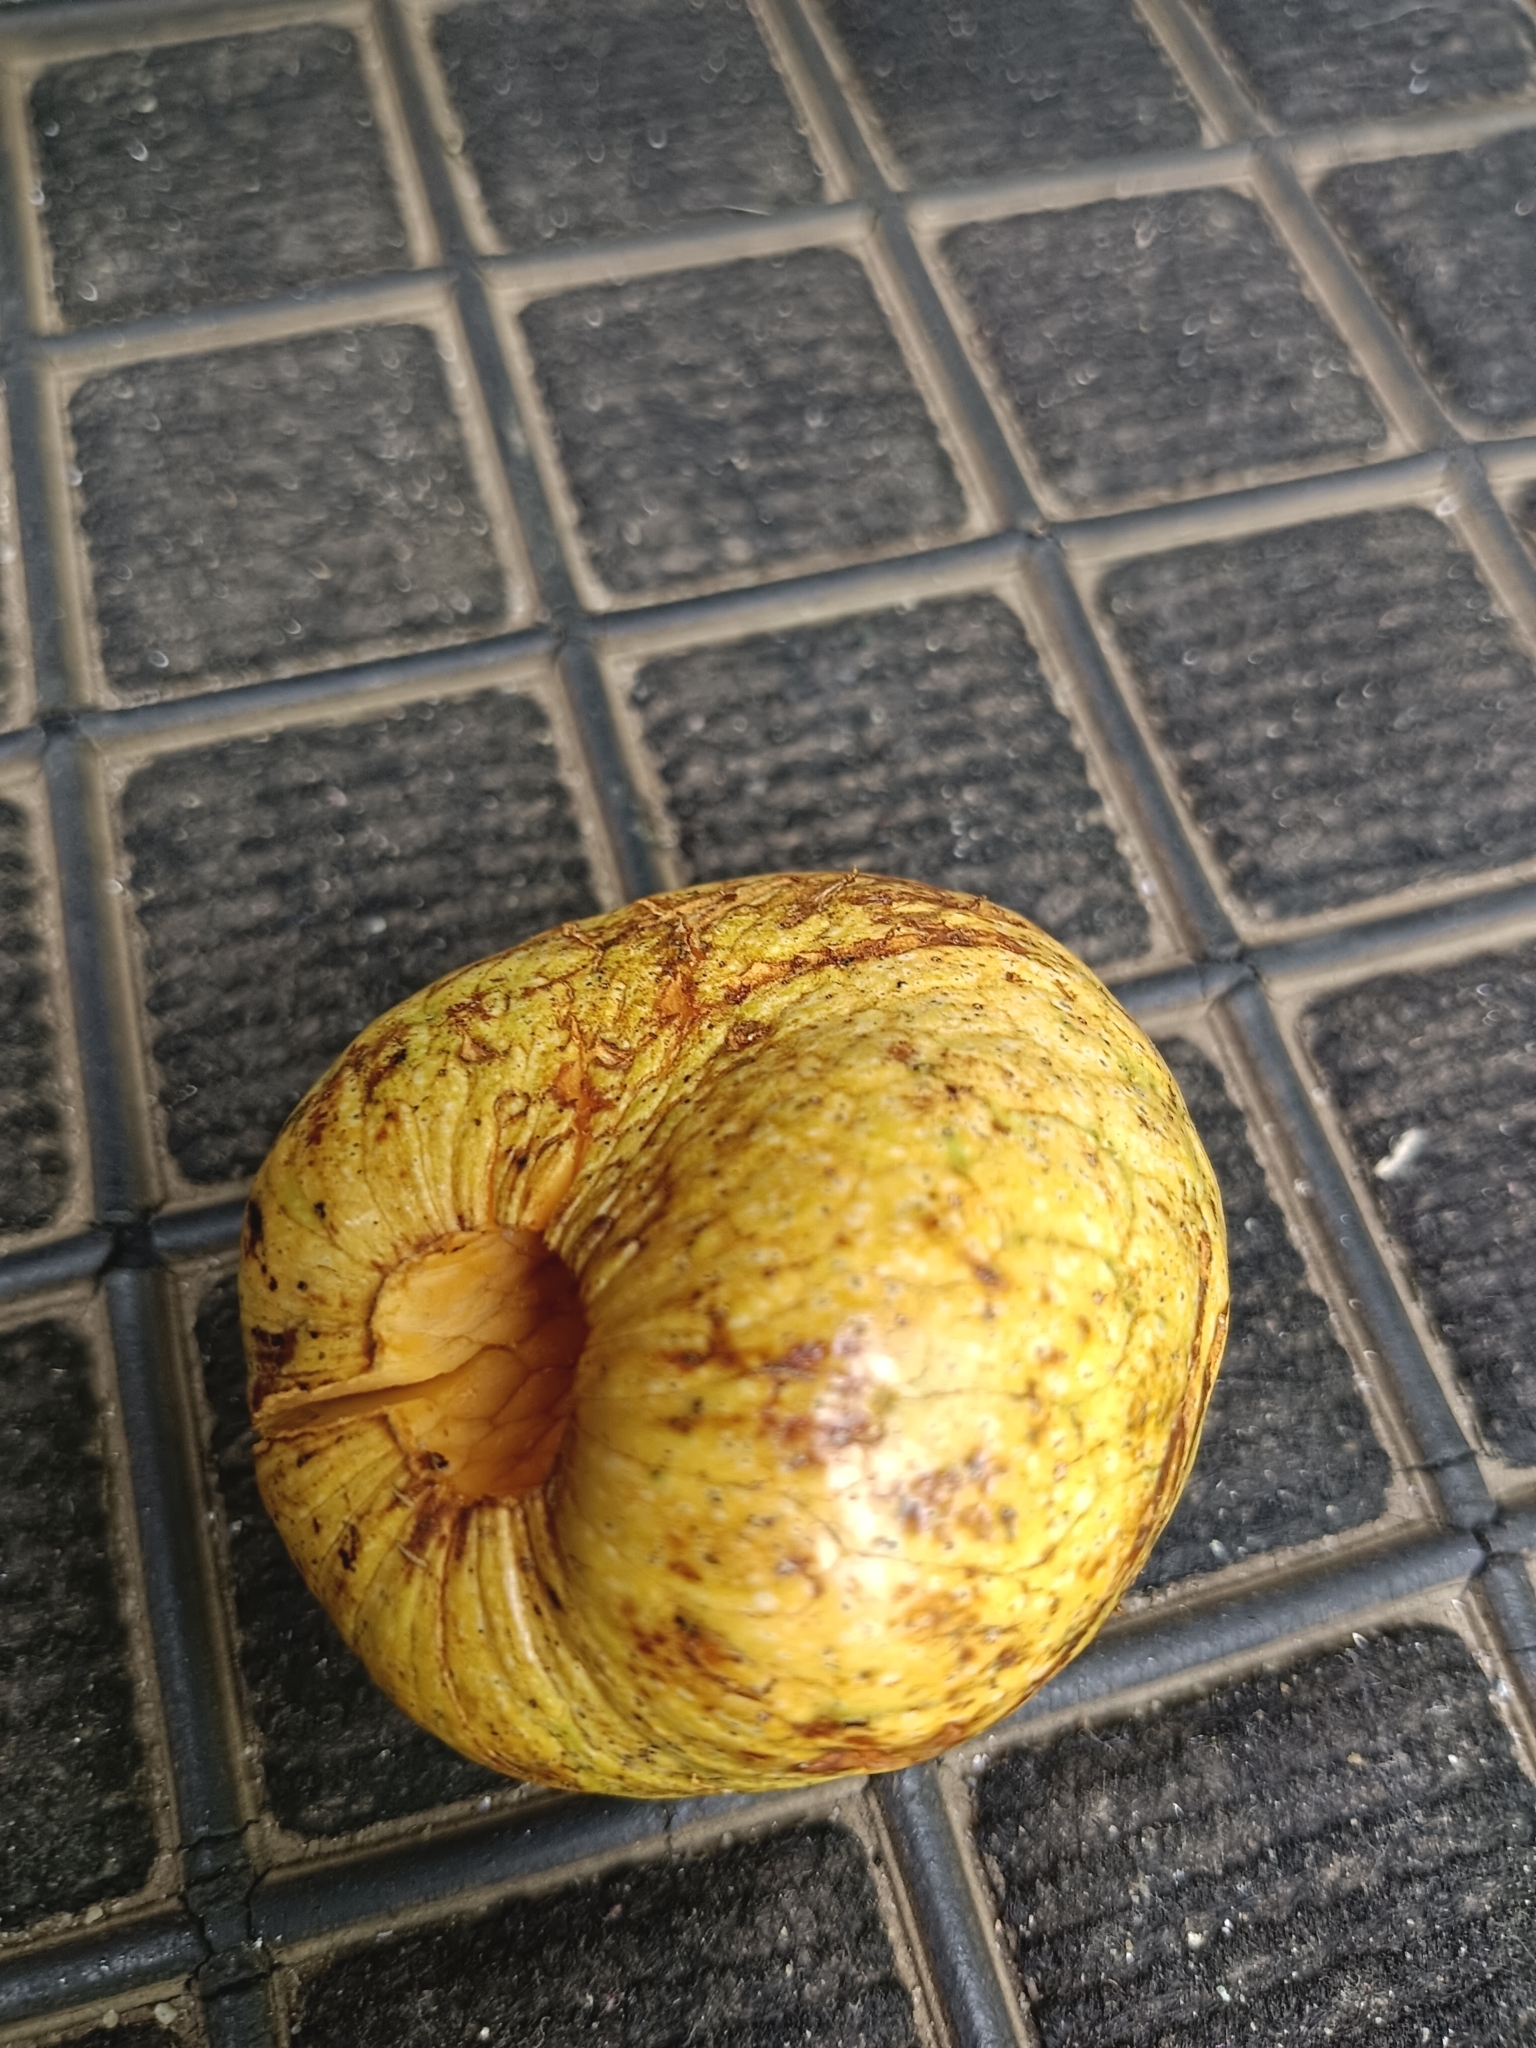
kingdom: Plantae
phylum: Tracheophyta
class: Magnoliopsida
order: Magnoliales
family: Annonaceae
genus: Annona
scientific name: Annona glabra
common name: Monkey apple
